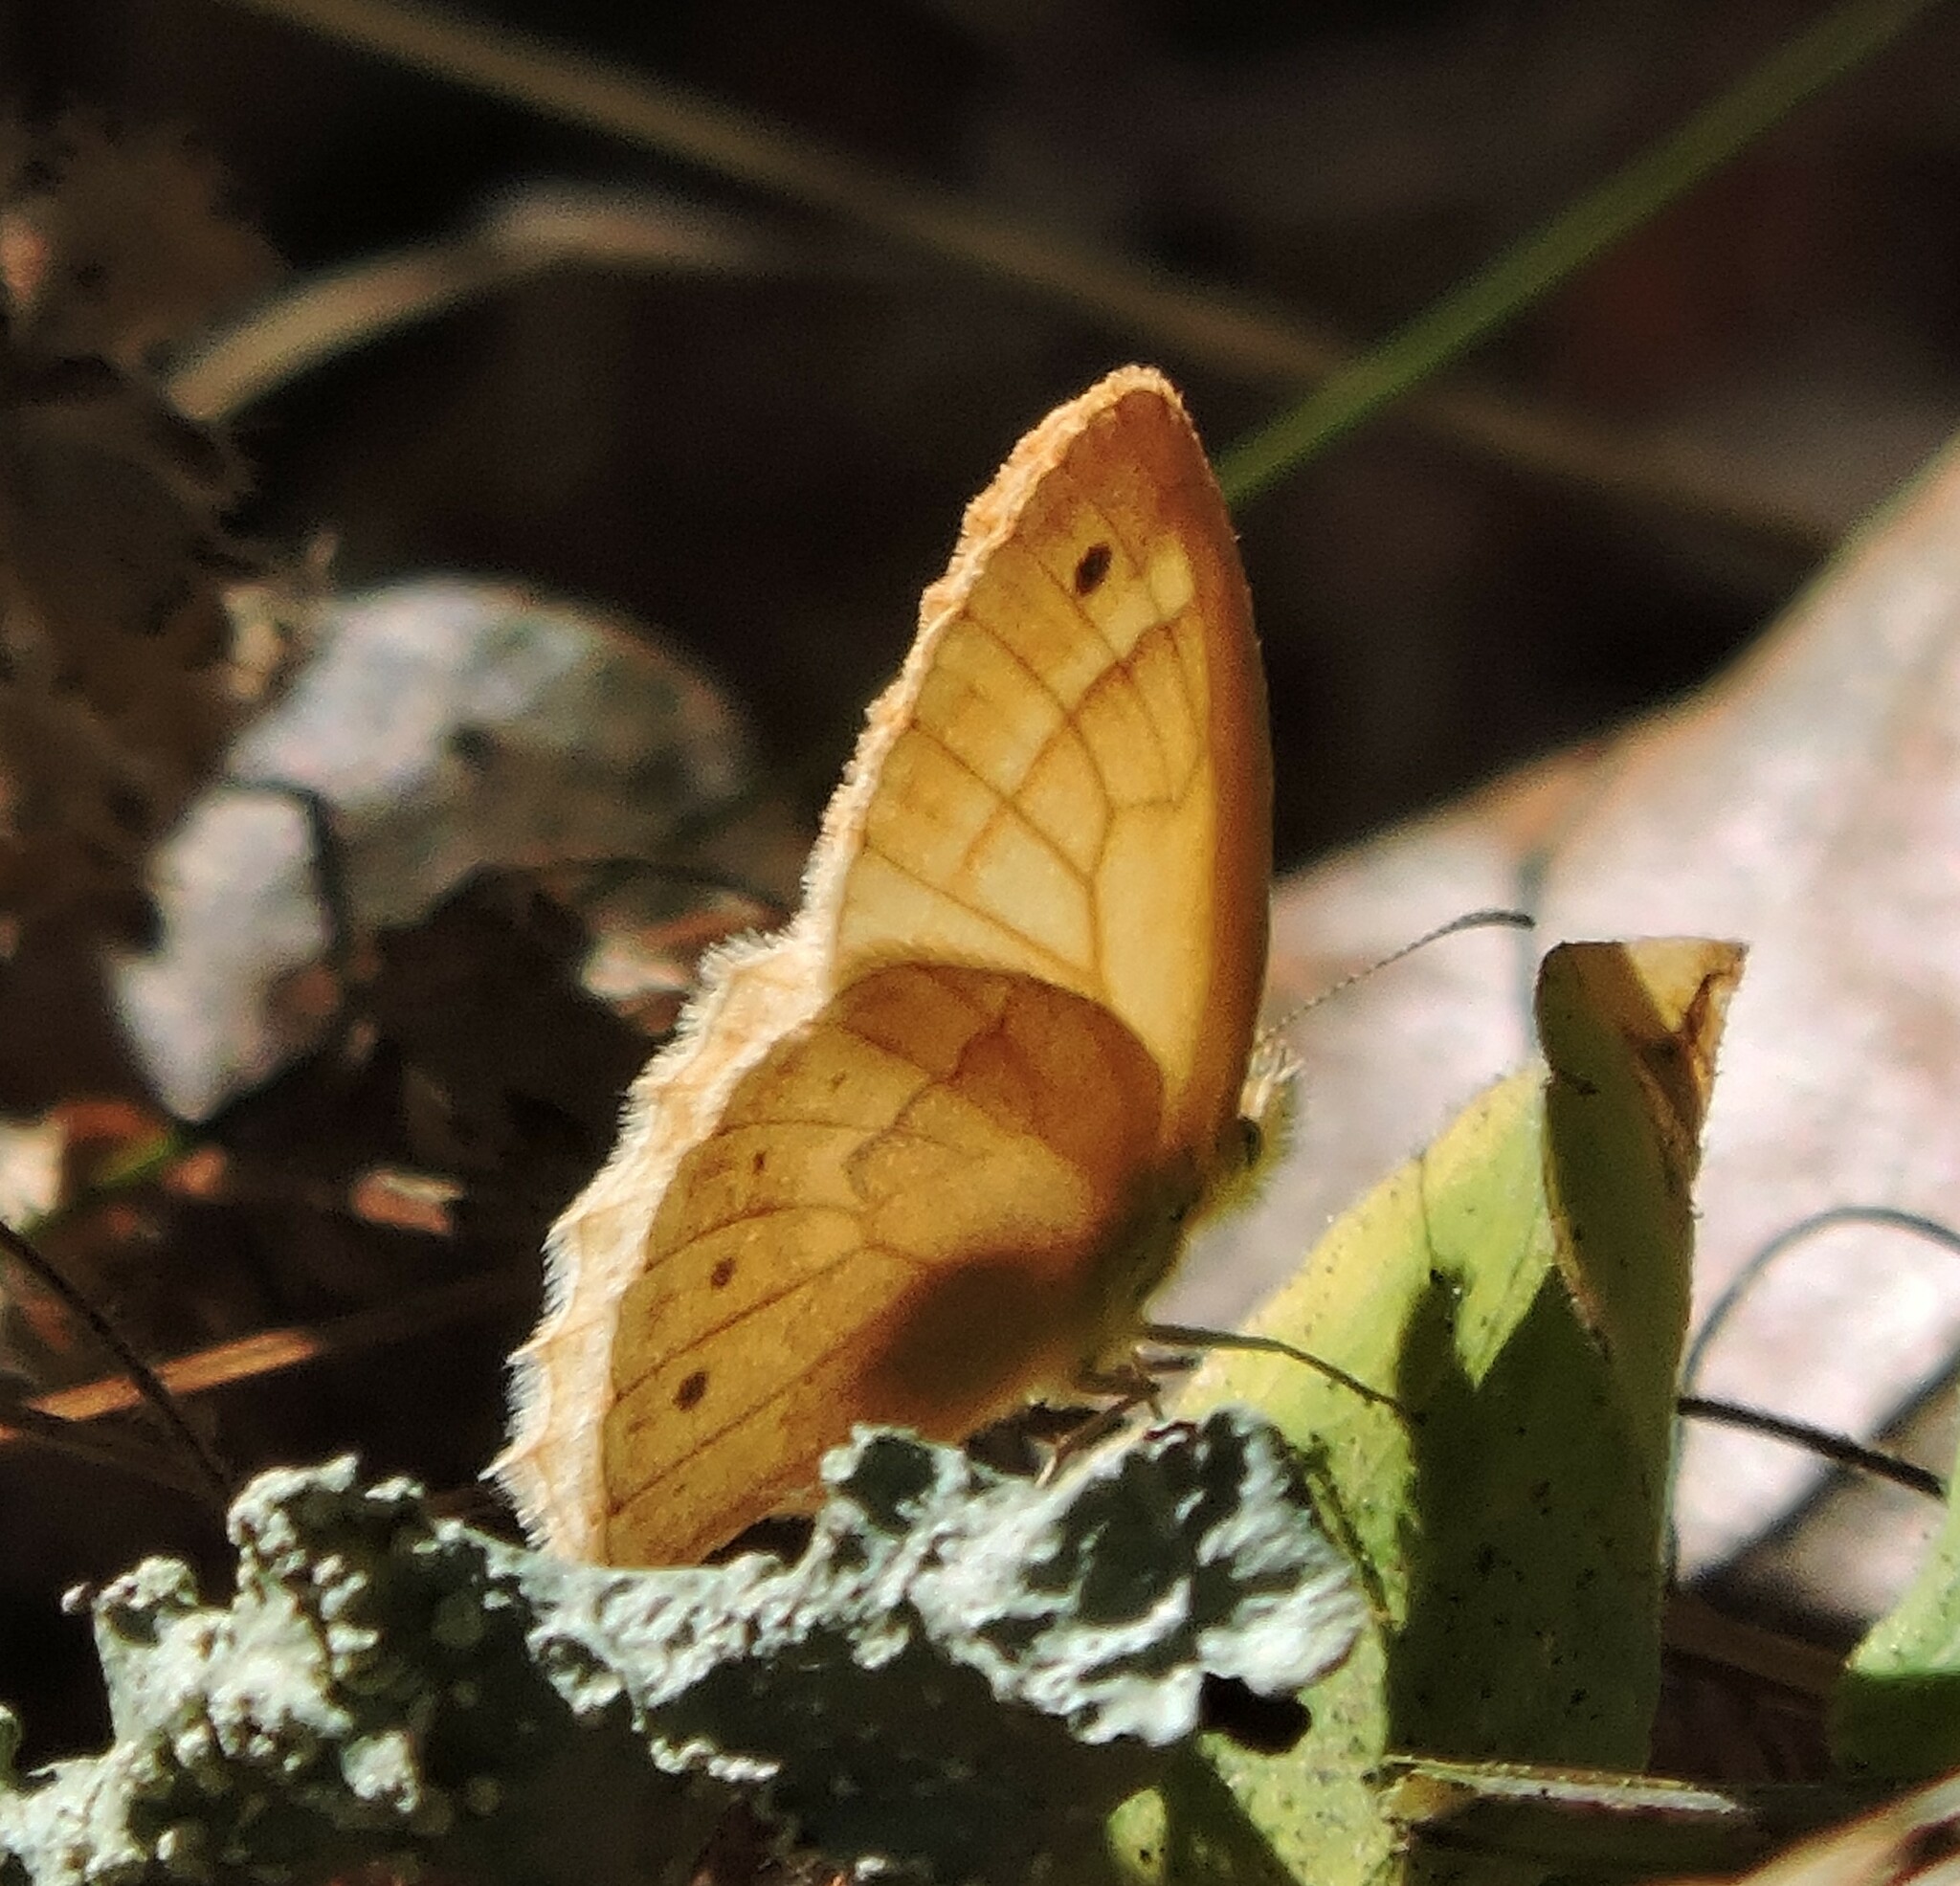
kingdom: Animalia
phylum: Arthropoda
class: Insecta
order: Lepidoptera
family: Nymphalidae
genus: Coenonympha
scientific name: Coenonympha california
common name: Common ringlet
